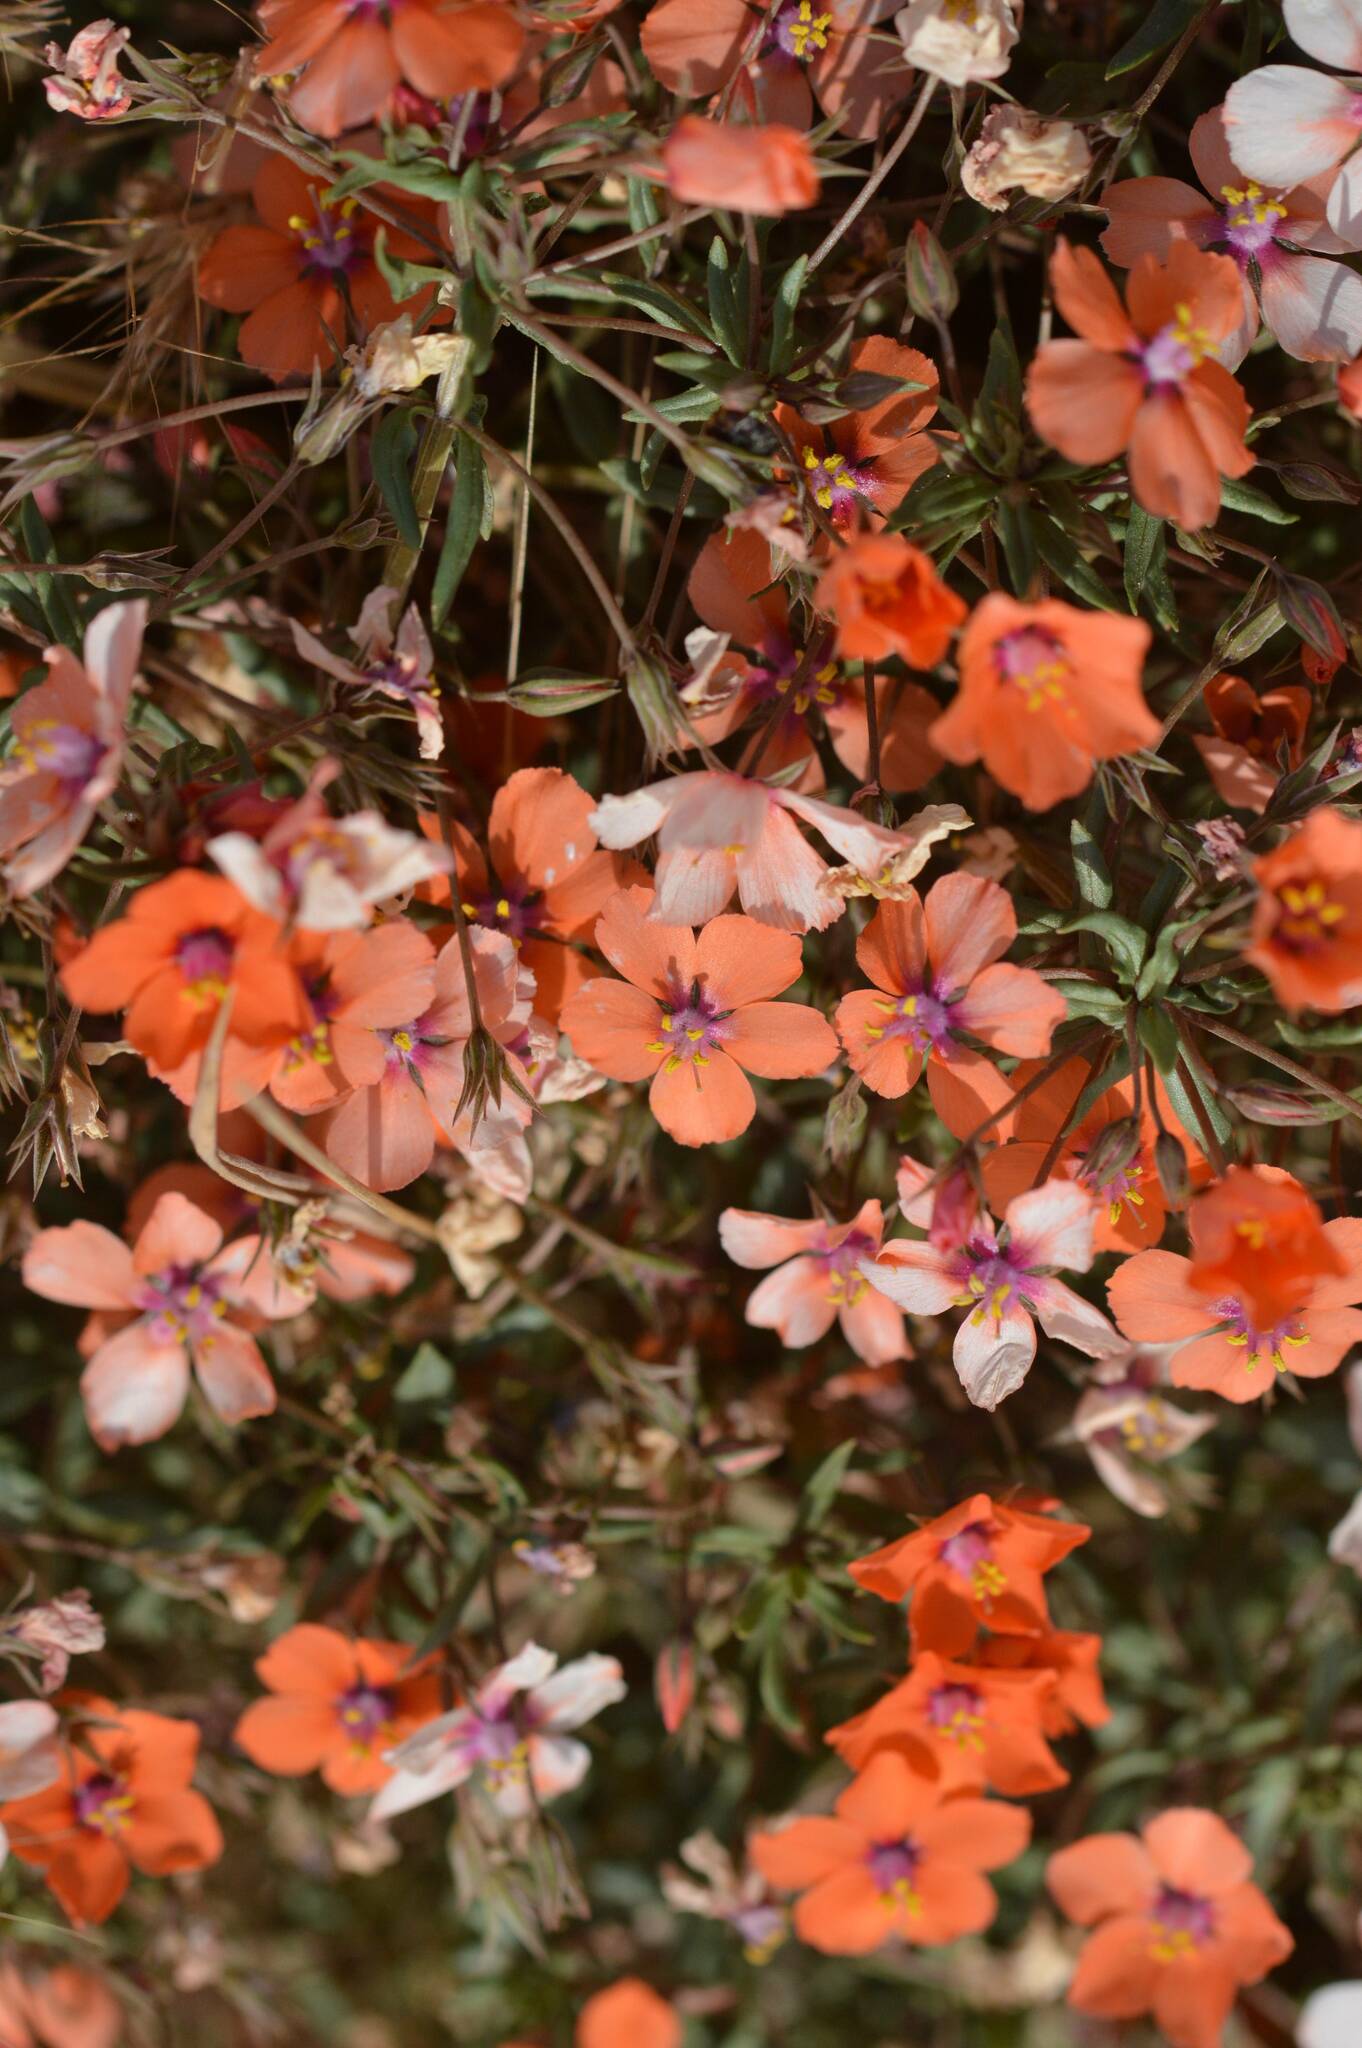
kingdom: Plantae
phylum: Tracheophyta
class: Magnoliopsida
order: Ericales
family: Primulaceae
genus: Lysimachia
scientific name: Lysimachia collina
